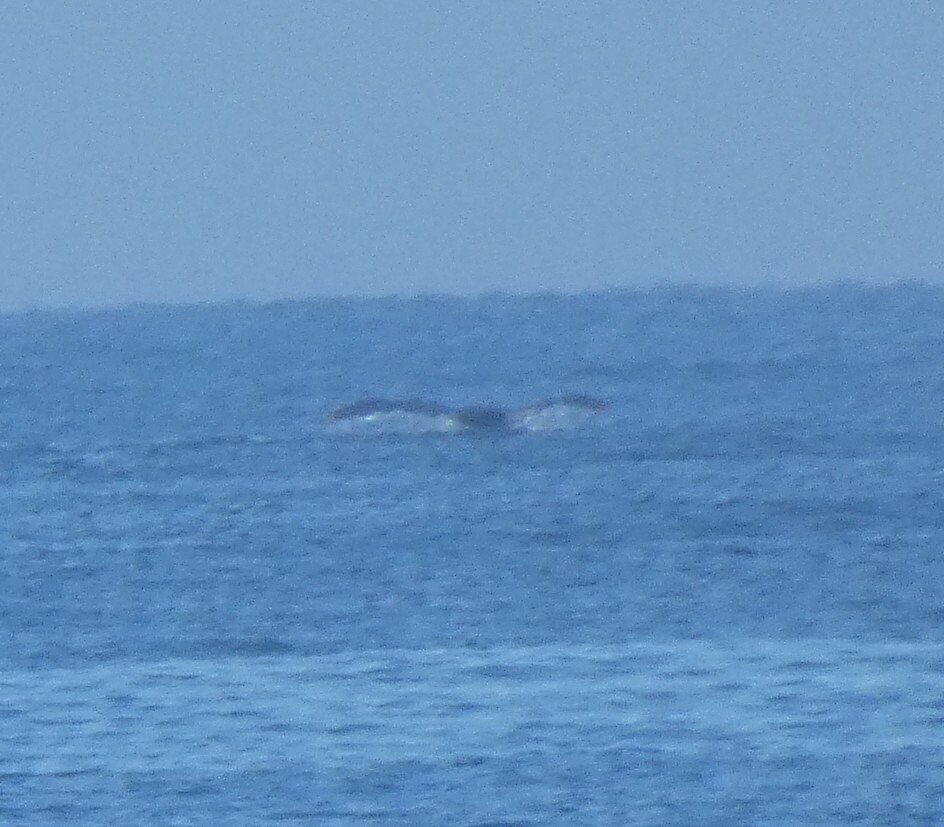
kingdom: Animalia
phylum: Chordata
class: Mammalia
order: Cetacea
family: Balaenopteridae
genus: Megaptera
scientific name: Megaptera novaeangliae
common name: Humpback whale
